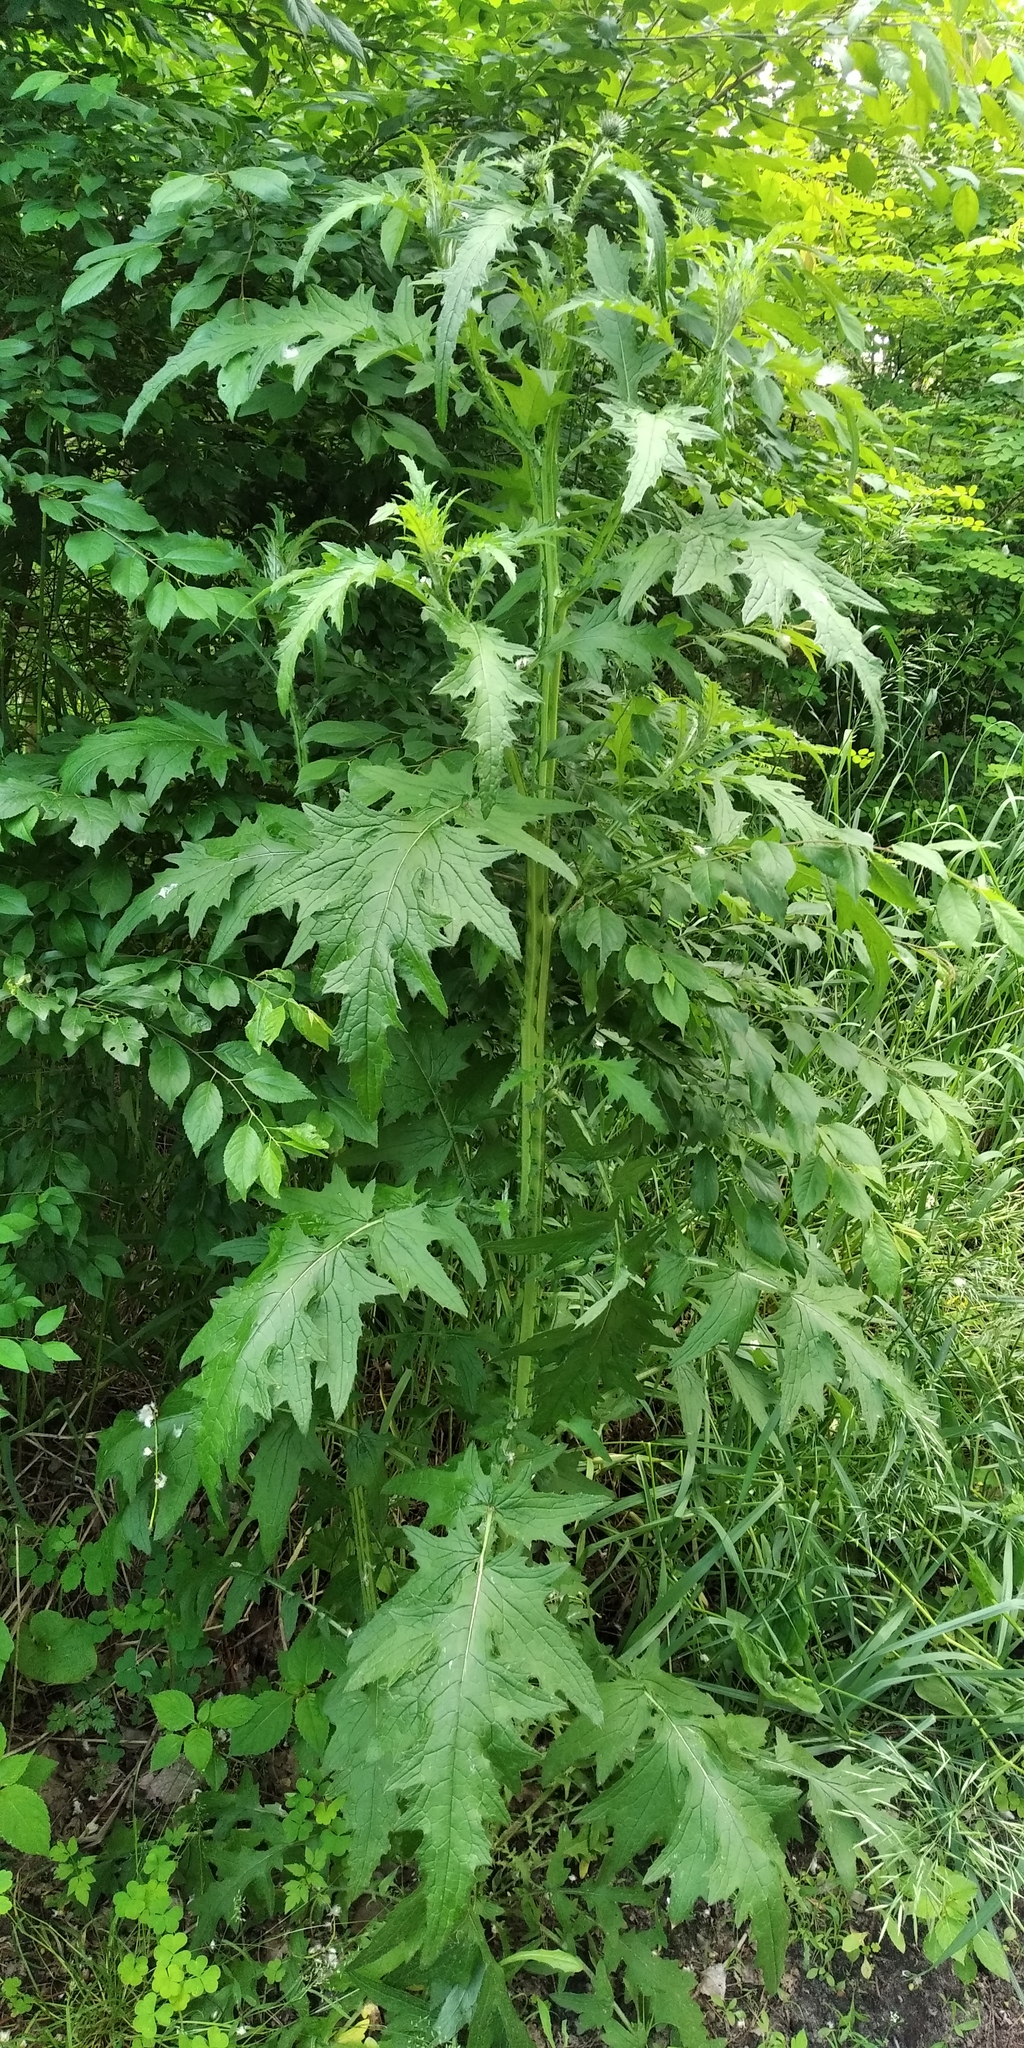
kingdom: Plantae
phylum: Tracheophyta
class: Magnoliopsida
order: Asterales
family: Asteraceae
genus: Carduus
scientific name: Carduus crispus
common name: Welted thistle
